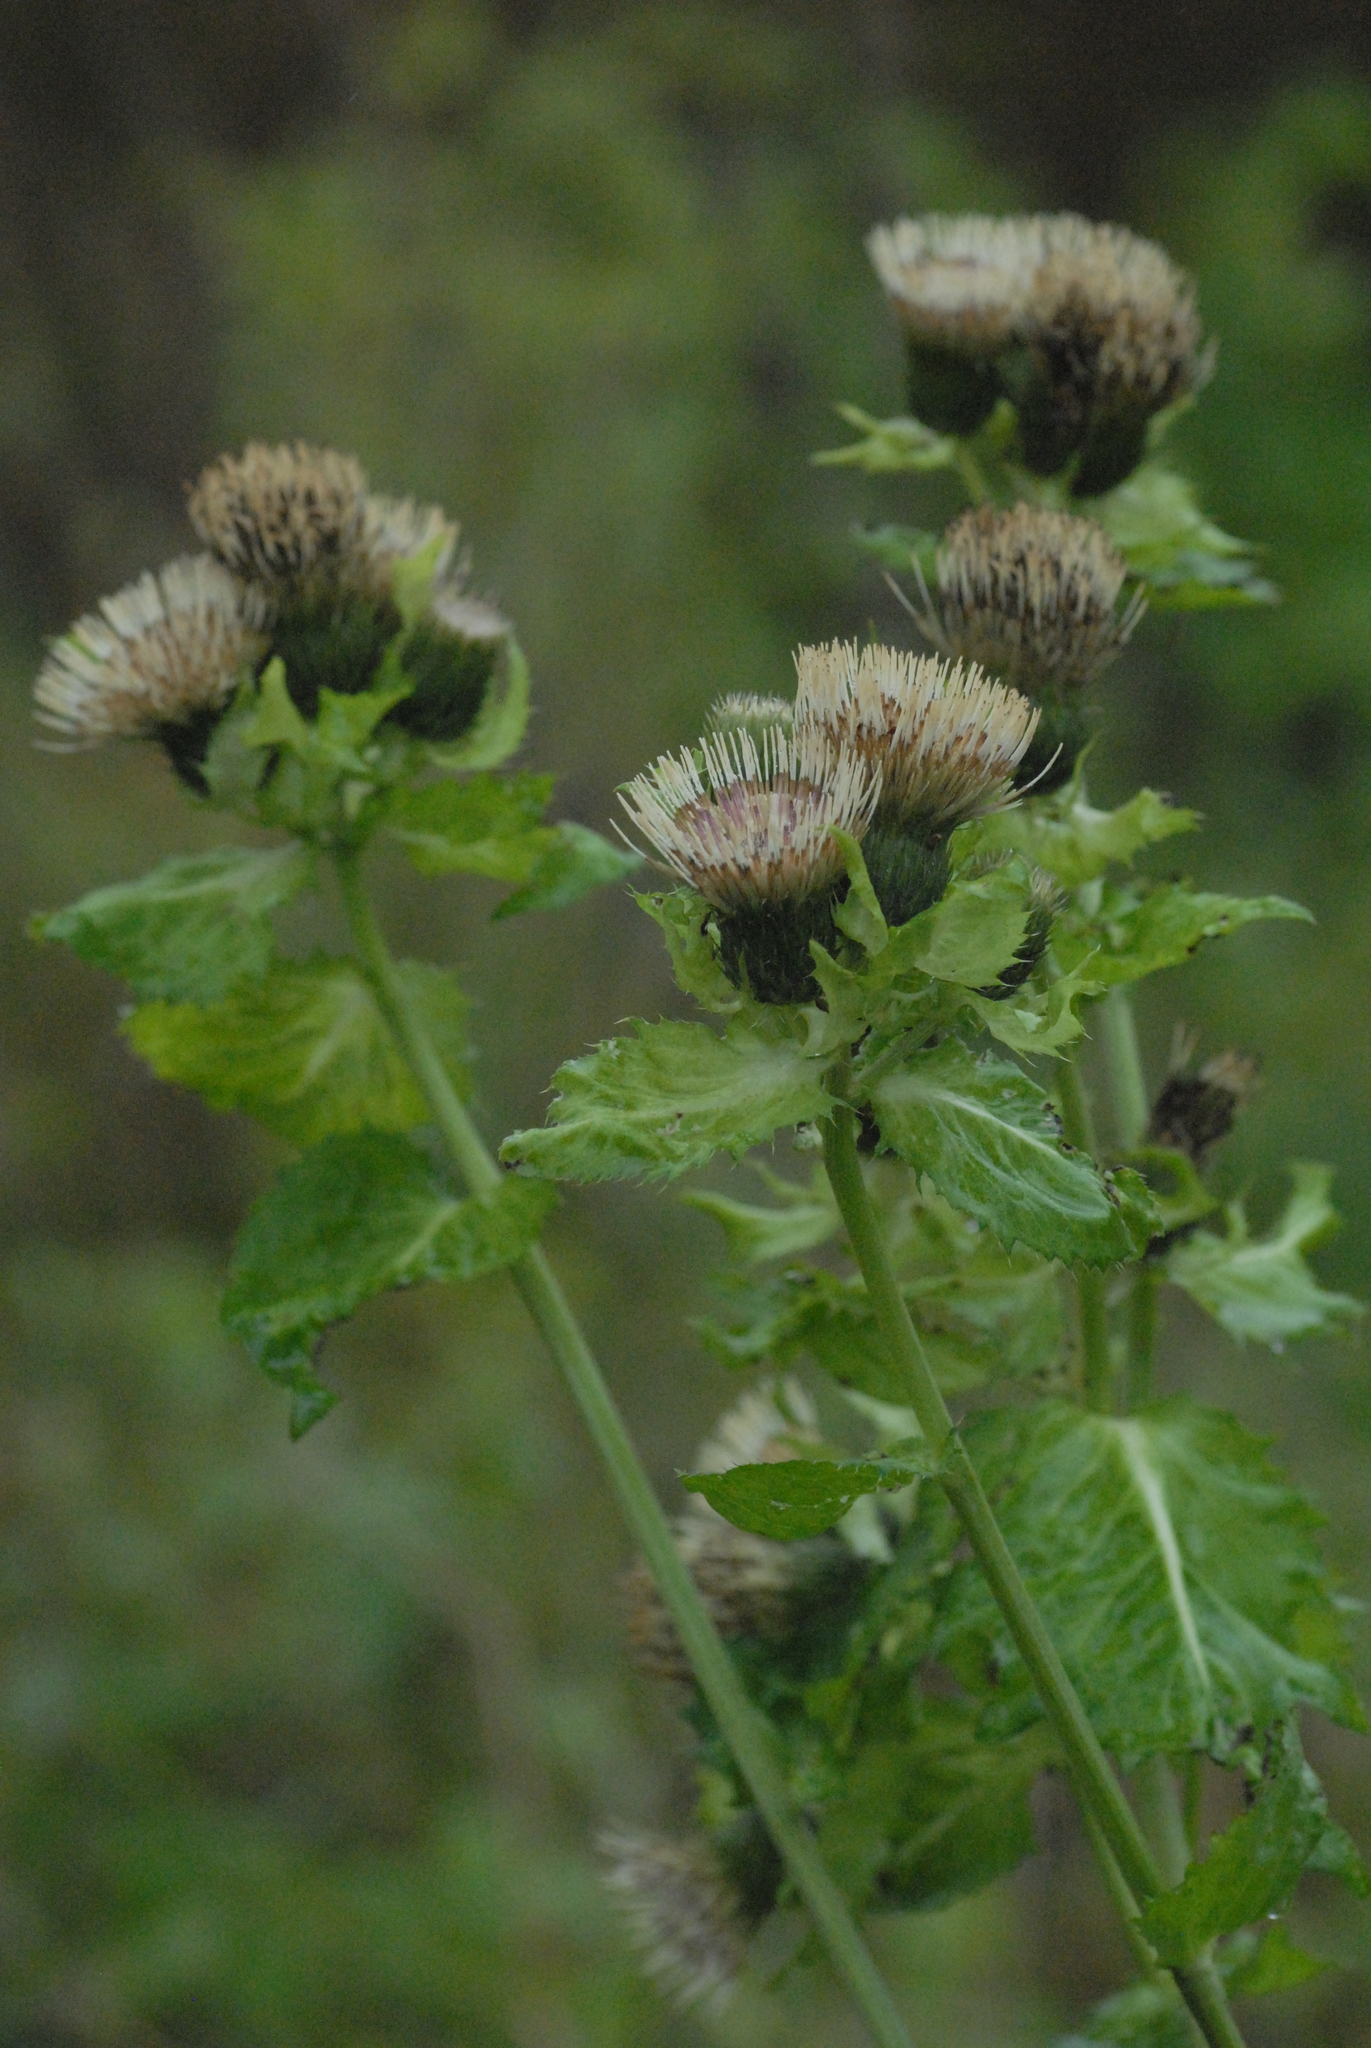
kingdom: Plantae
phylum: Tracheophyta
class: Magnoliopsida
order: Asterales
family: Asteraceae
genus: Cirsium
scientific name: Cirsium oleraceum
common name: Cabbage thistle
